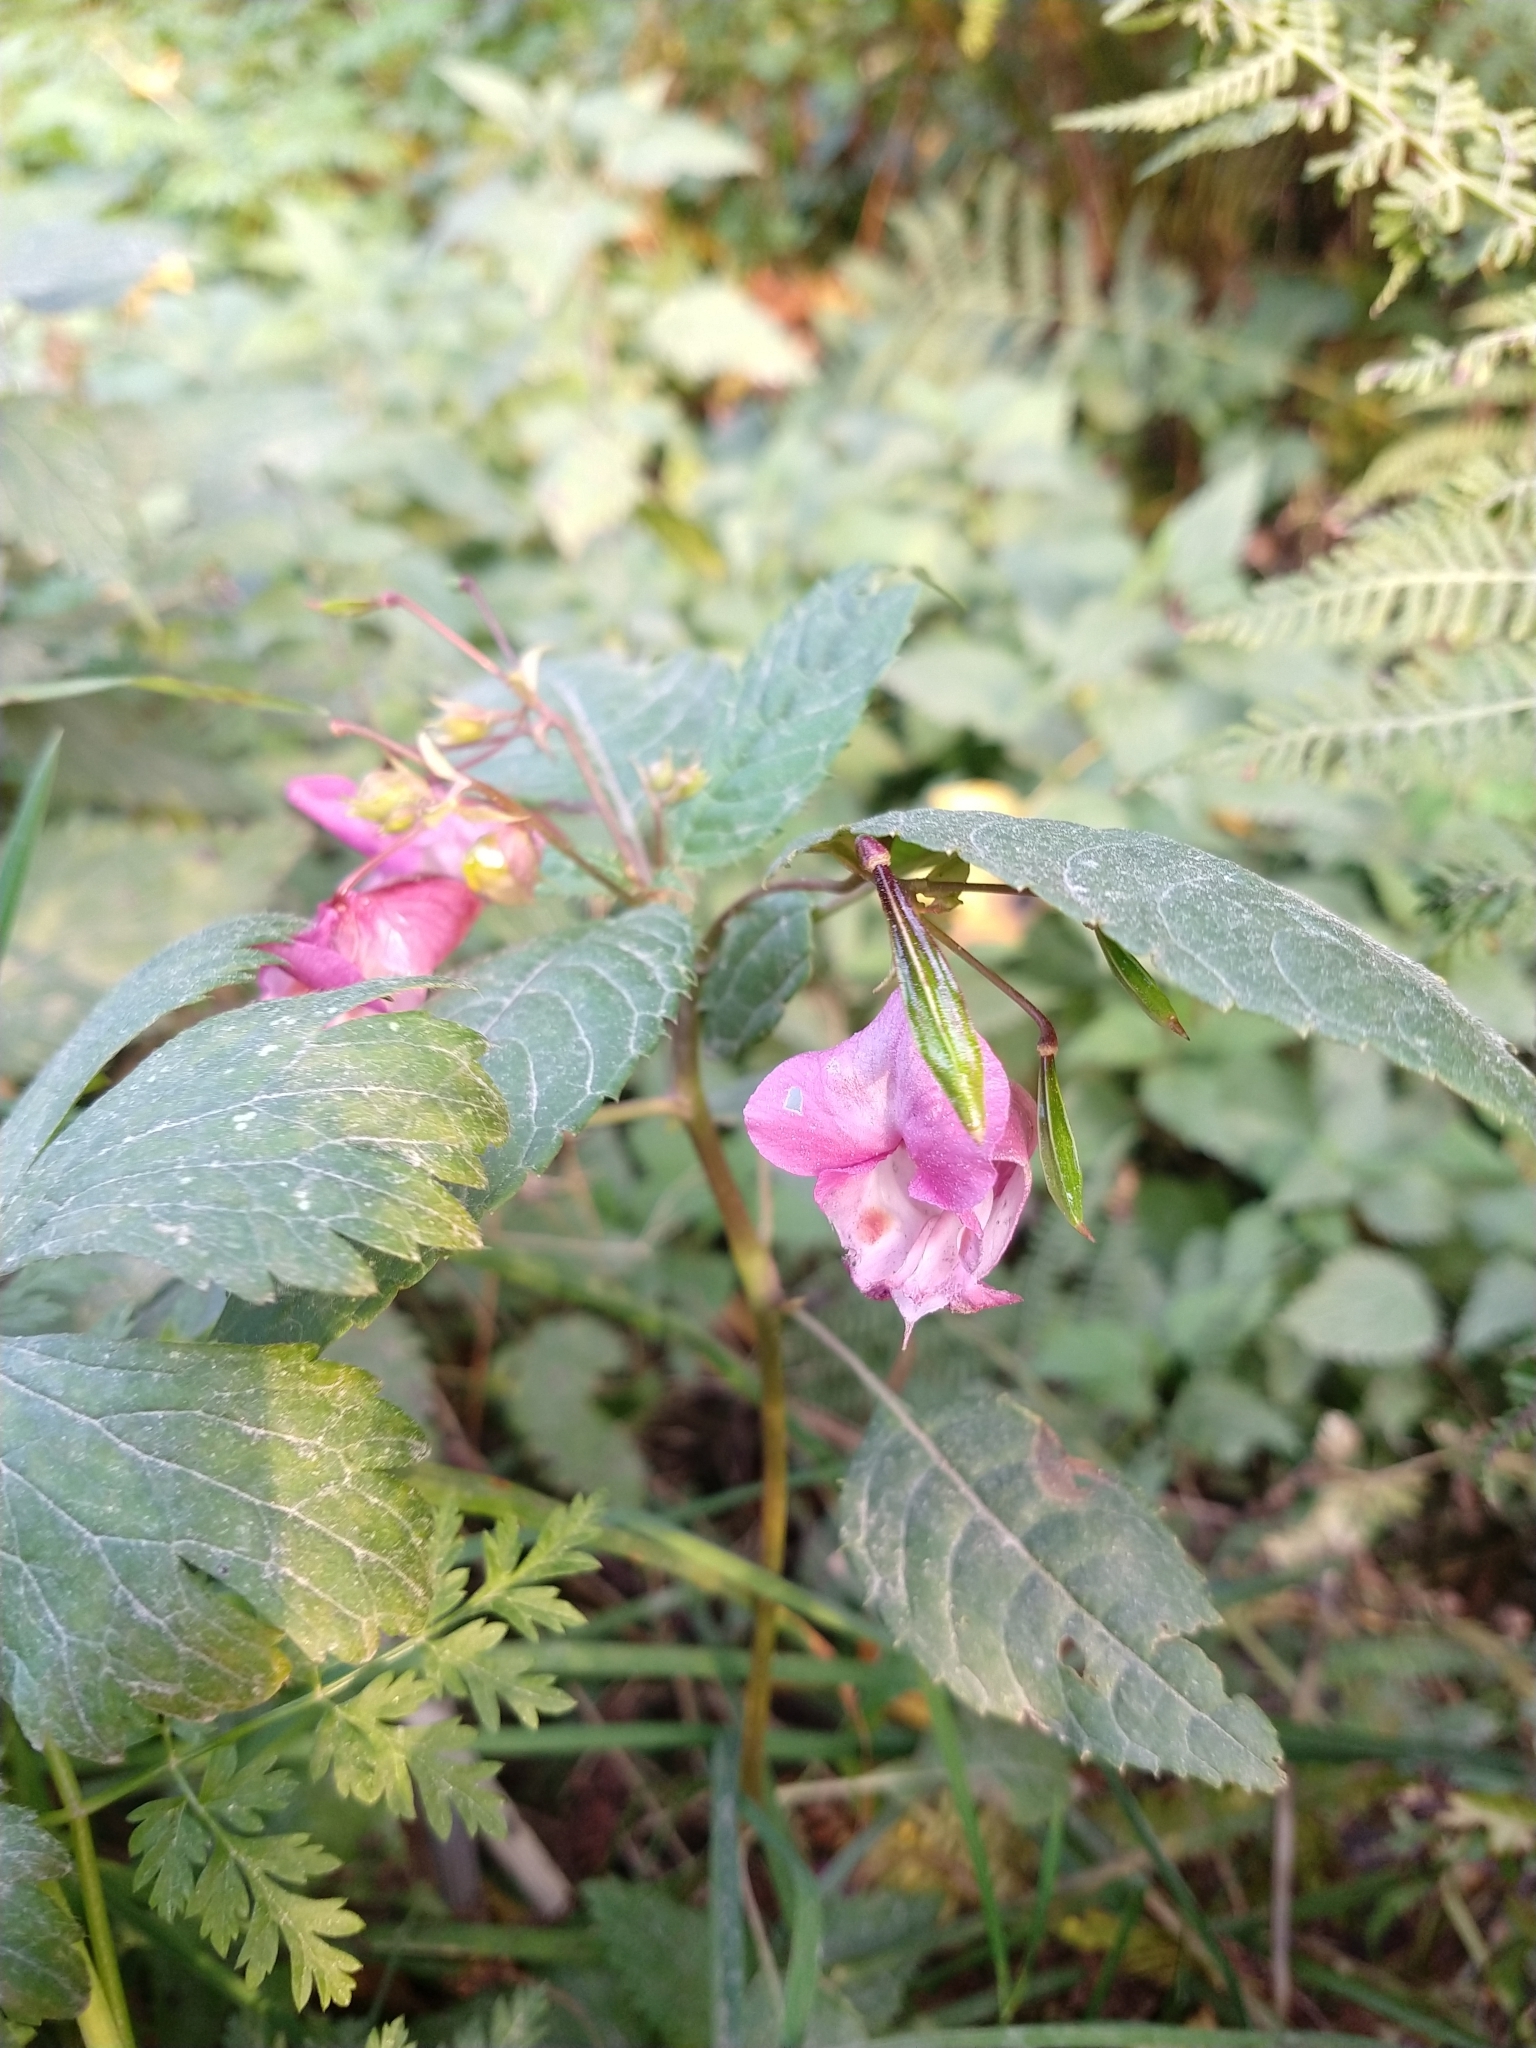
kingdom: Plantae
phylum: Tracheophyta
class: Magnoliopsida
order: Ericales
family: Balsaminaceae
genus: Impatiens
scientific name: Impatiens glandulifera
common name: Himalayan balsam
